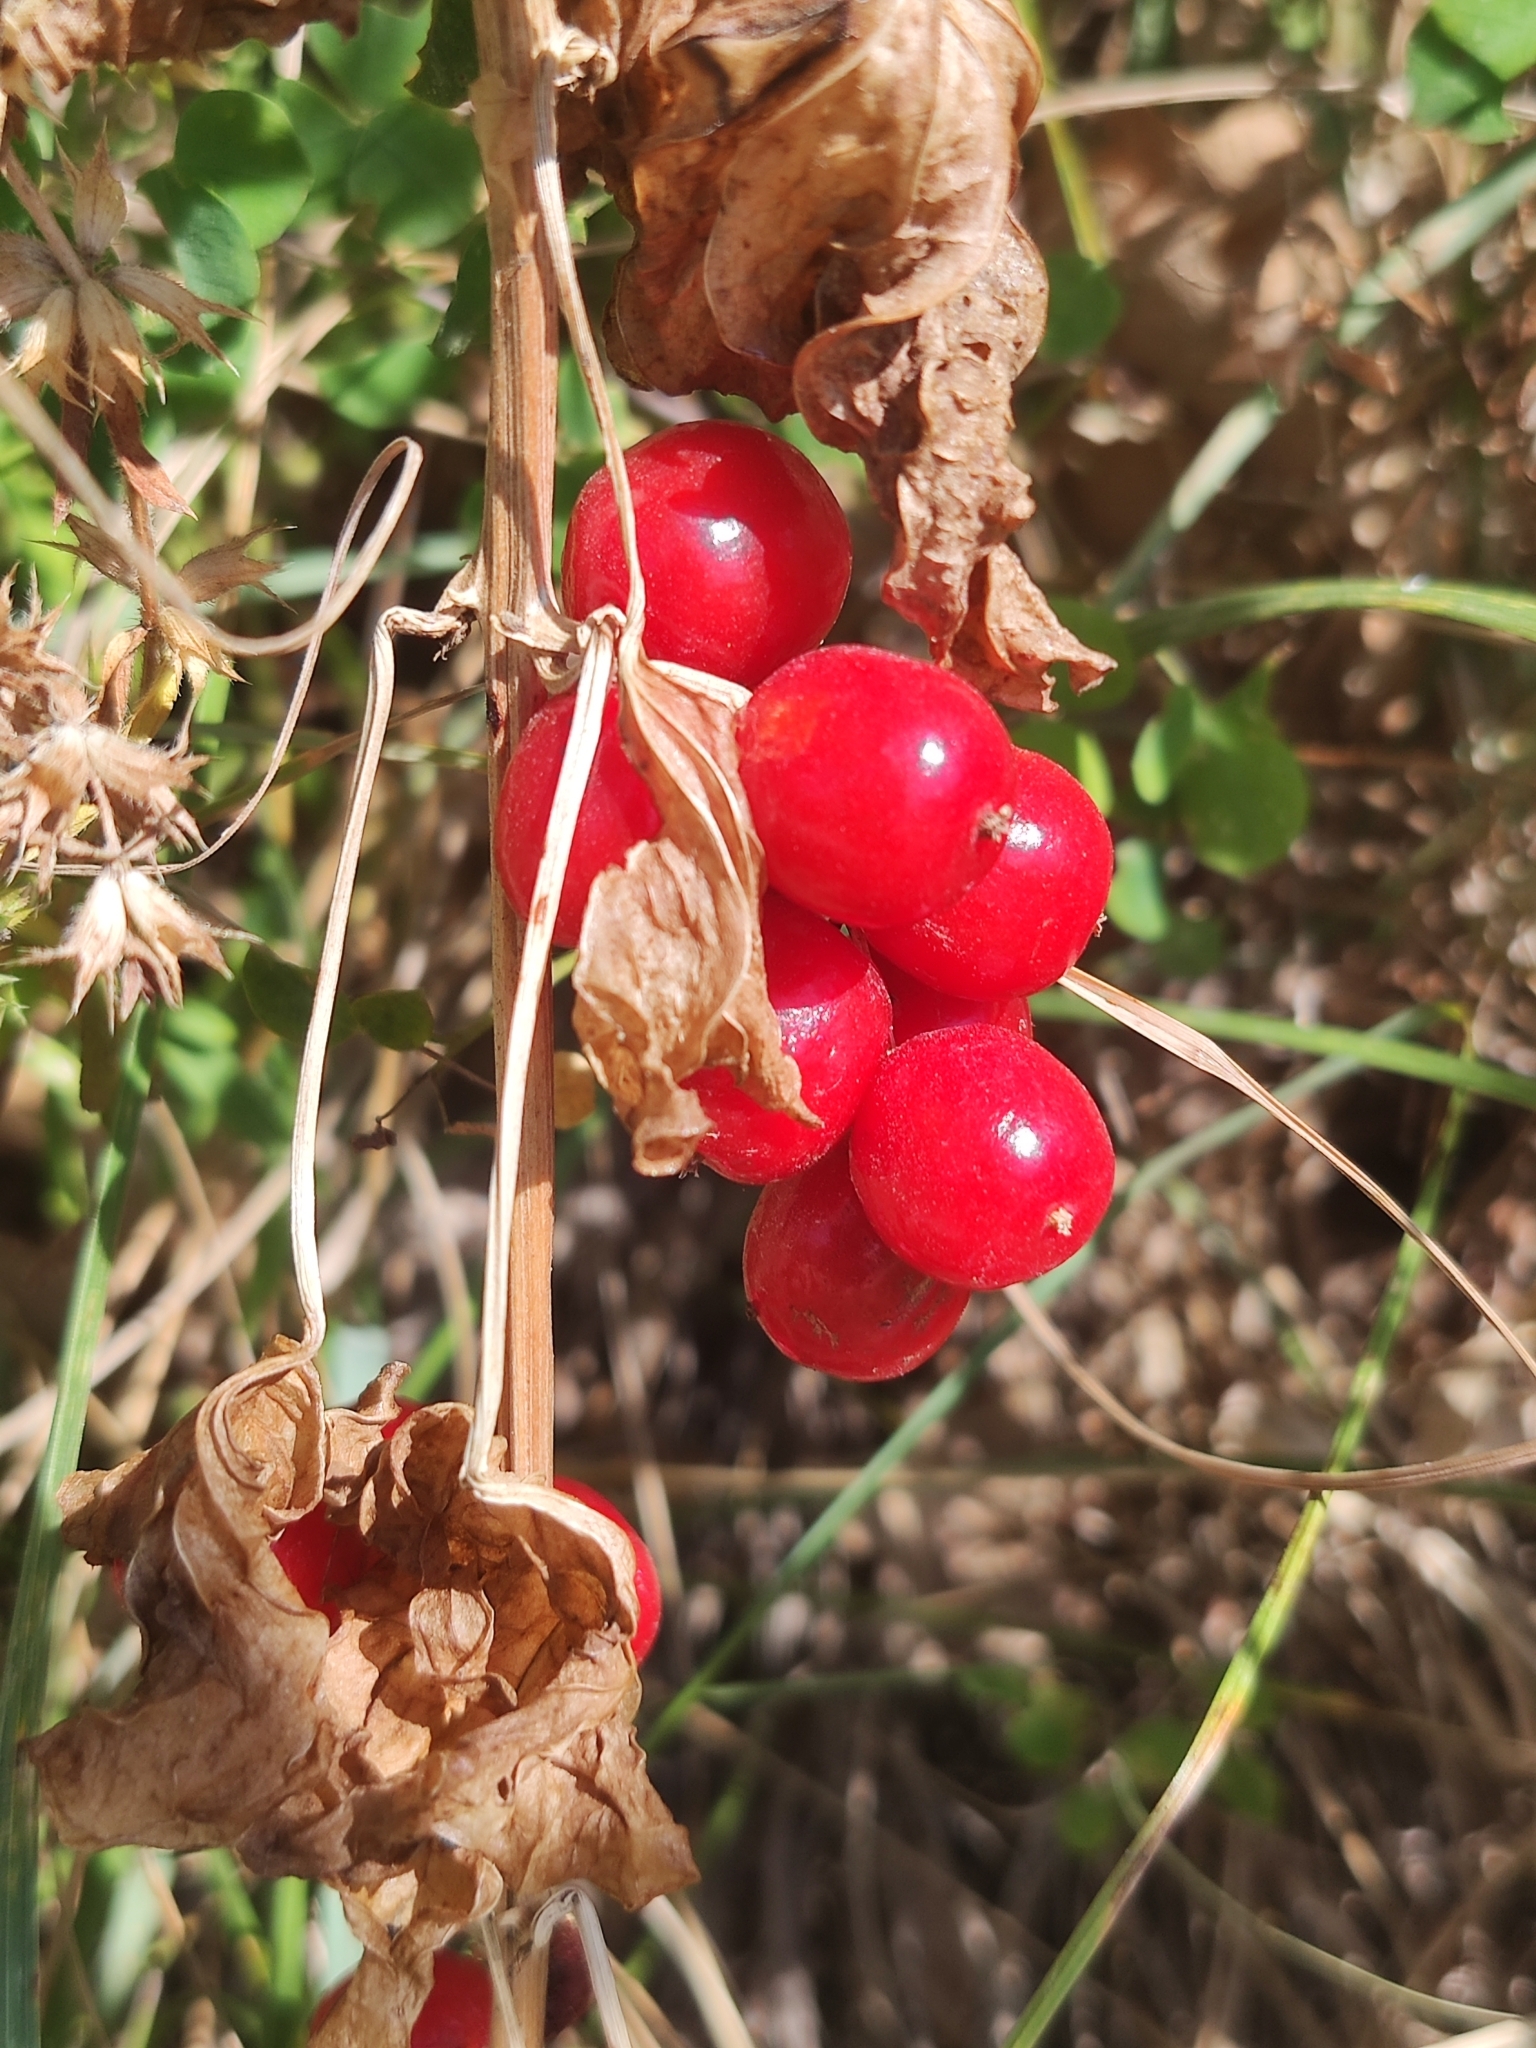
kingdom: Plantae
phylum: Tracheophyta
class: Liliopsida
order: Dioscoreales
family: Dioscoreaceae
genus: Dioscorea
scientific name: Dioscorea communis
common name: Black-bindweed
